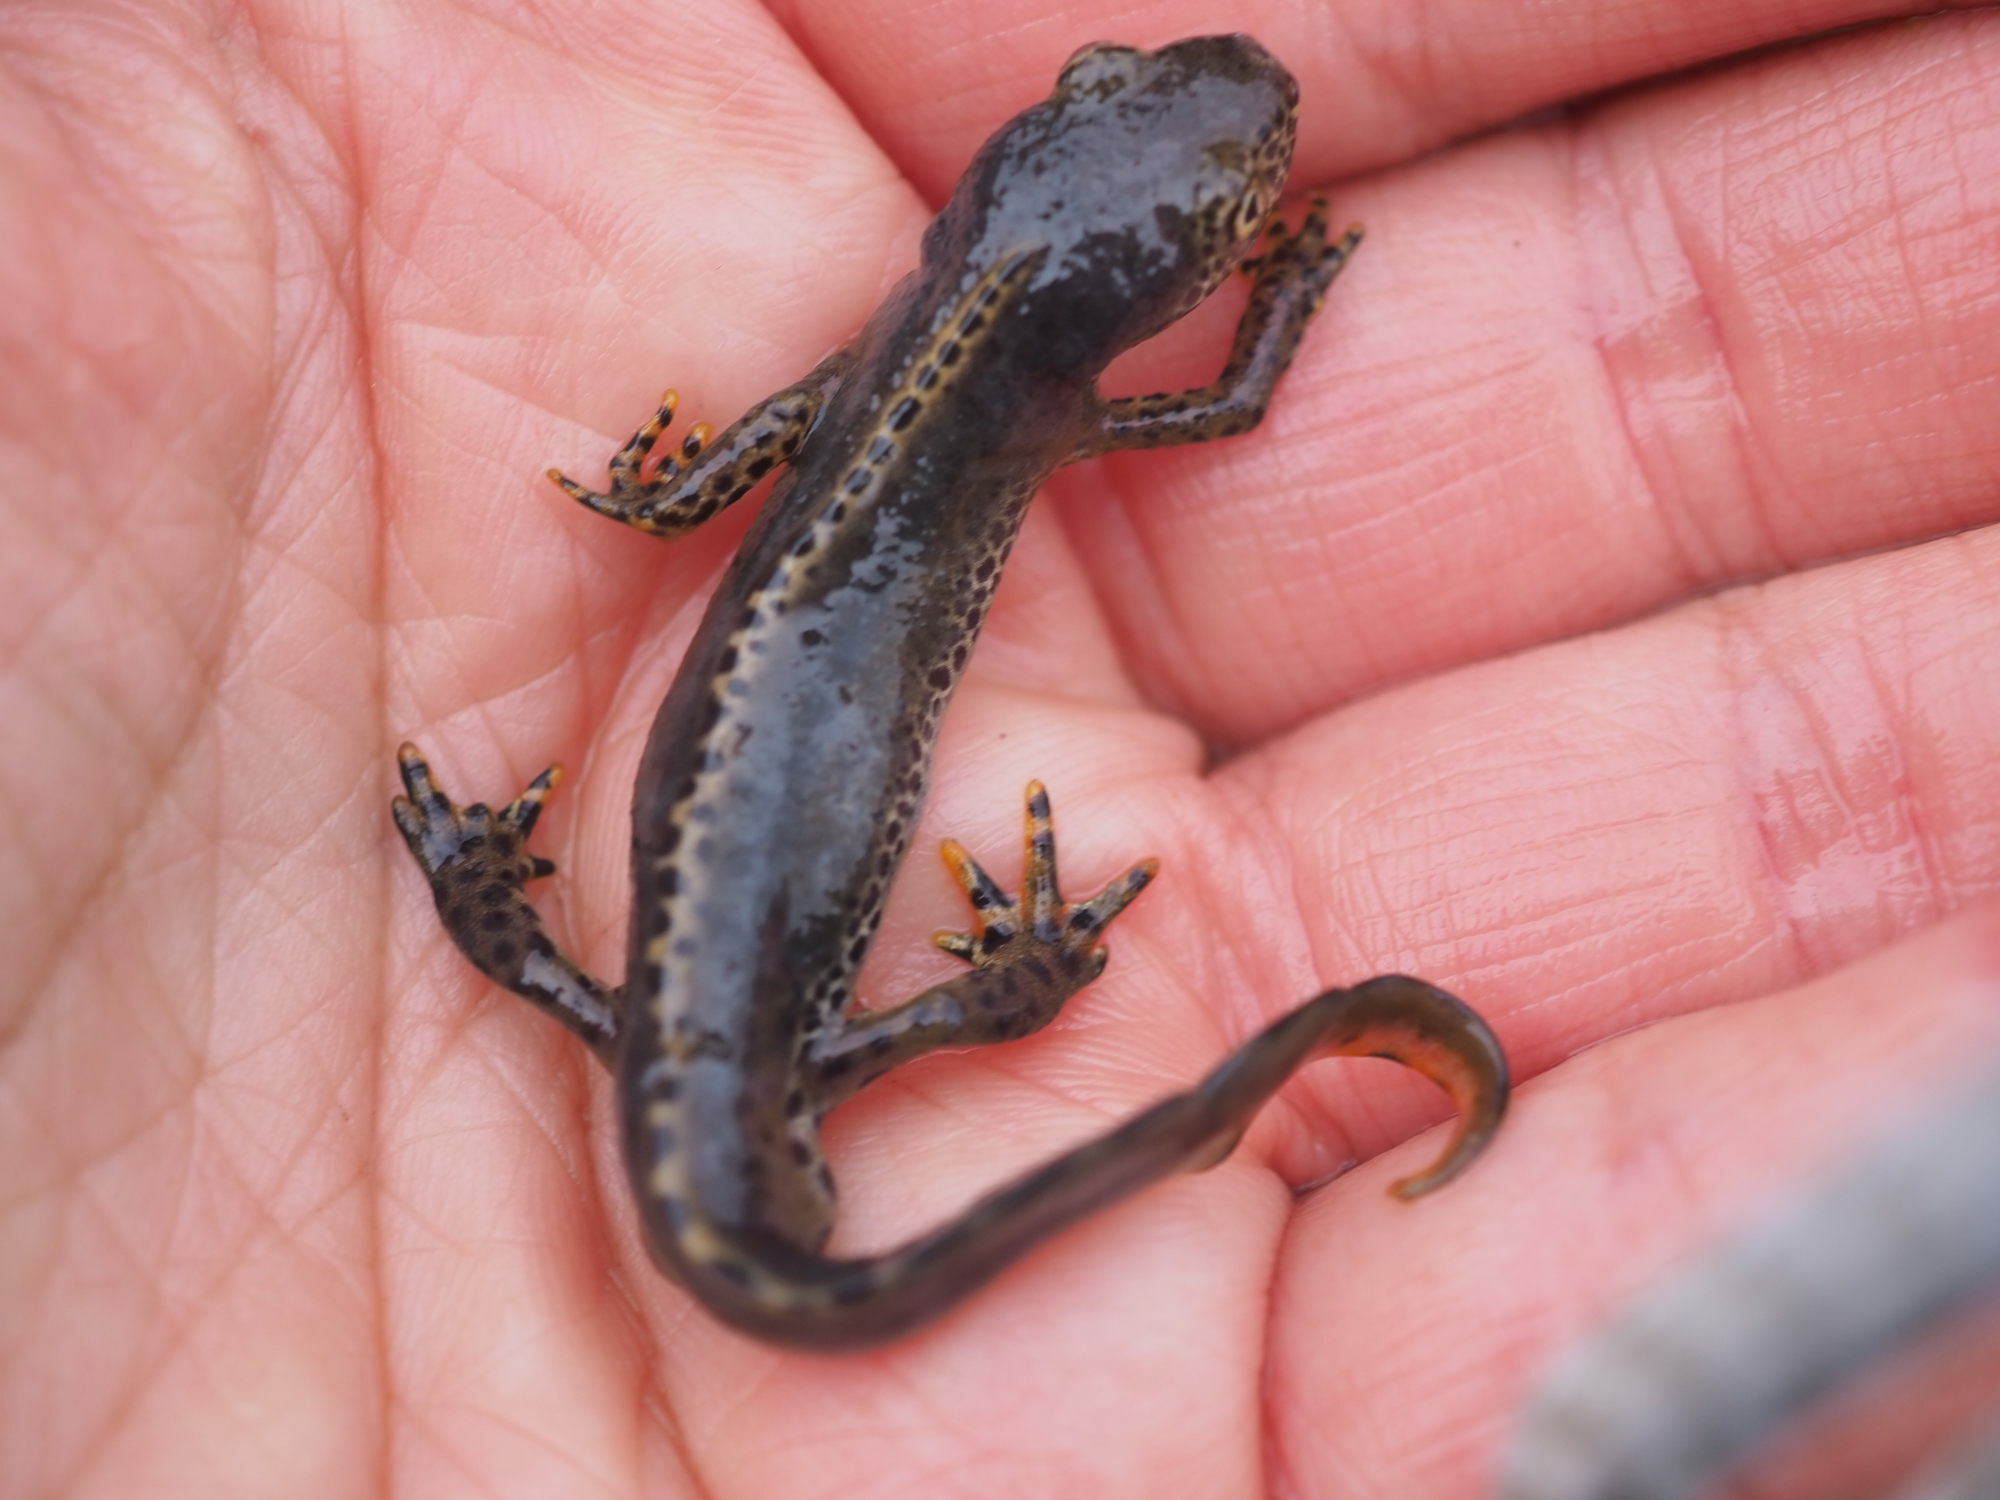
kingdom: Animalia
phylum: Chordata
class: Amphibia
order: Caudata
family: Salamandridae
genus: Ichthyosaura
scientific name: Ichthyosaura alpestris
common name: Alpine newt
